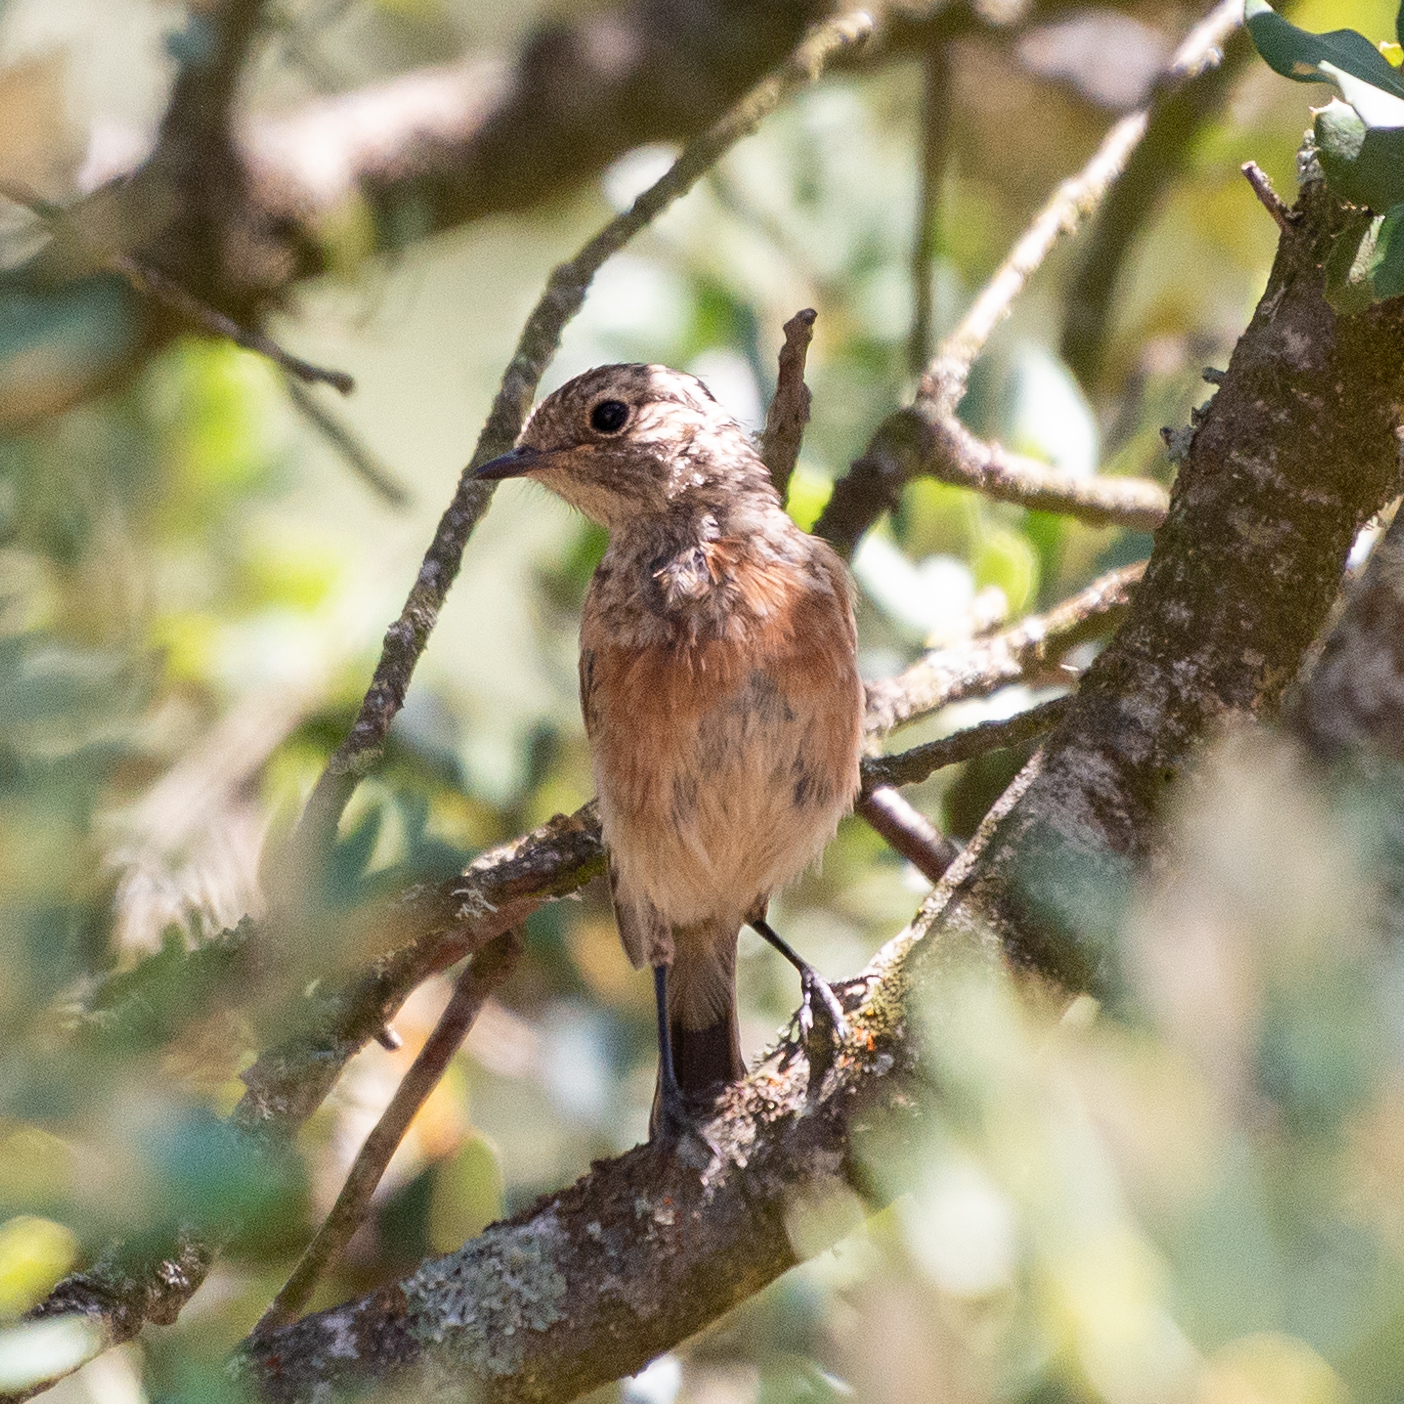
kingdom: Animalia
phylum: Chordata
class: Aves
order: Passeriformes
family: Muscicapidae
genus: Saxicola
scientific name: Saxicola rubicola
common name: European stonechat
